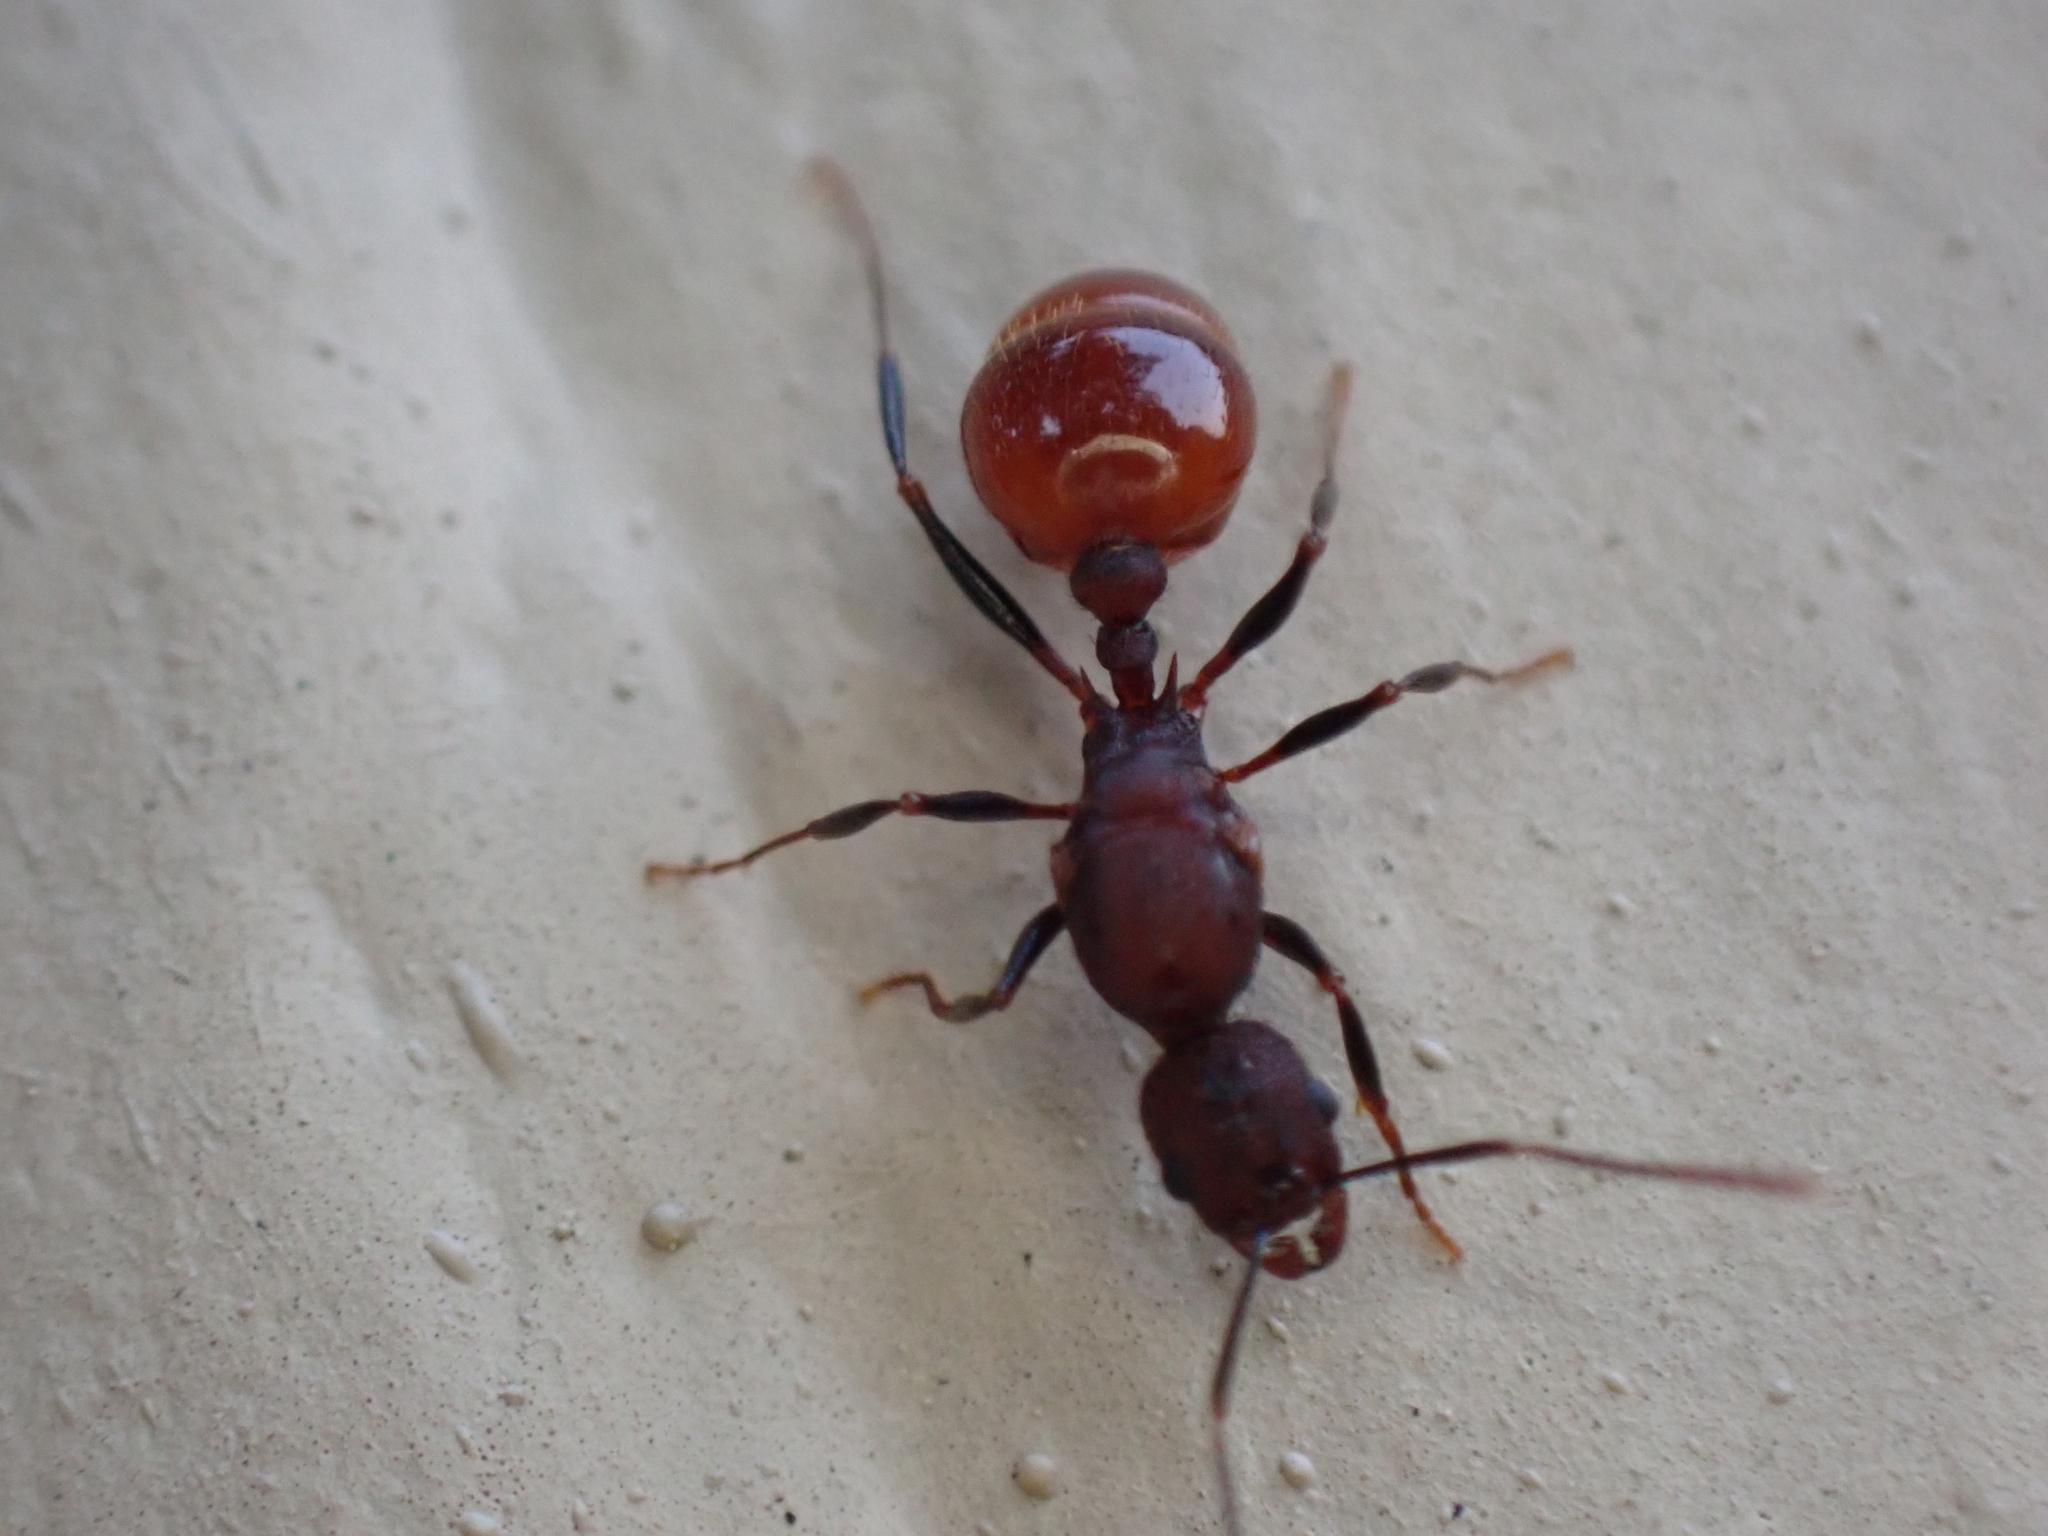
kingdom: Animalia
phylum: Arthropoda
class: Insecta
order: Hymenoptera
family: Formicidae
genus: Aphaenogaster
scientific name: Aphaenogaster lamellidens
